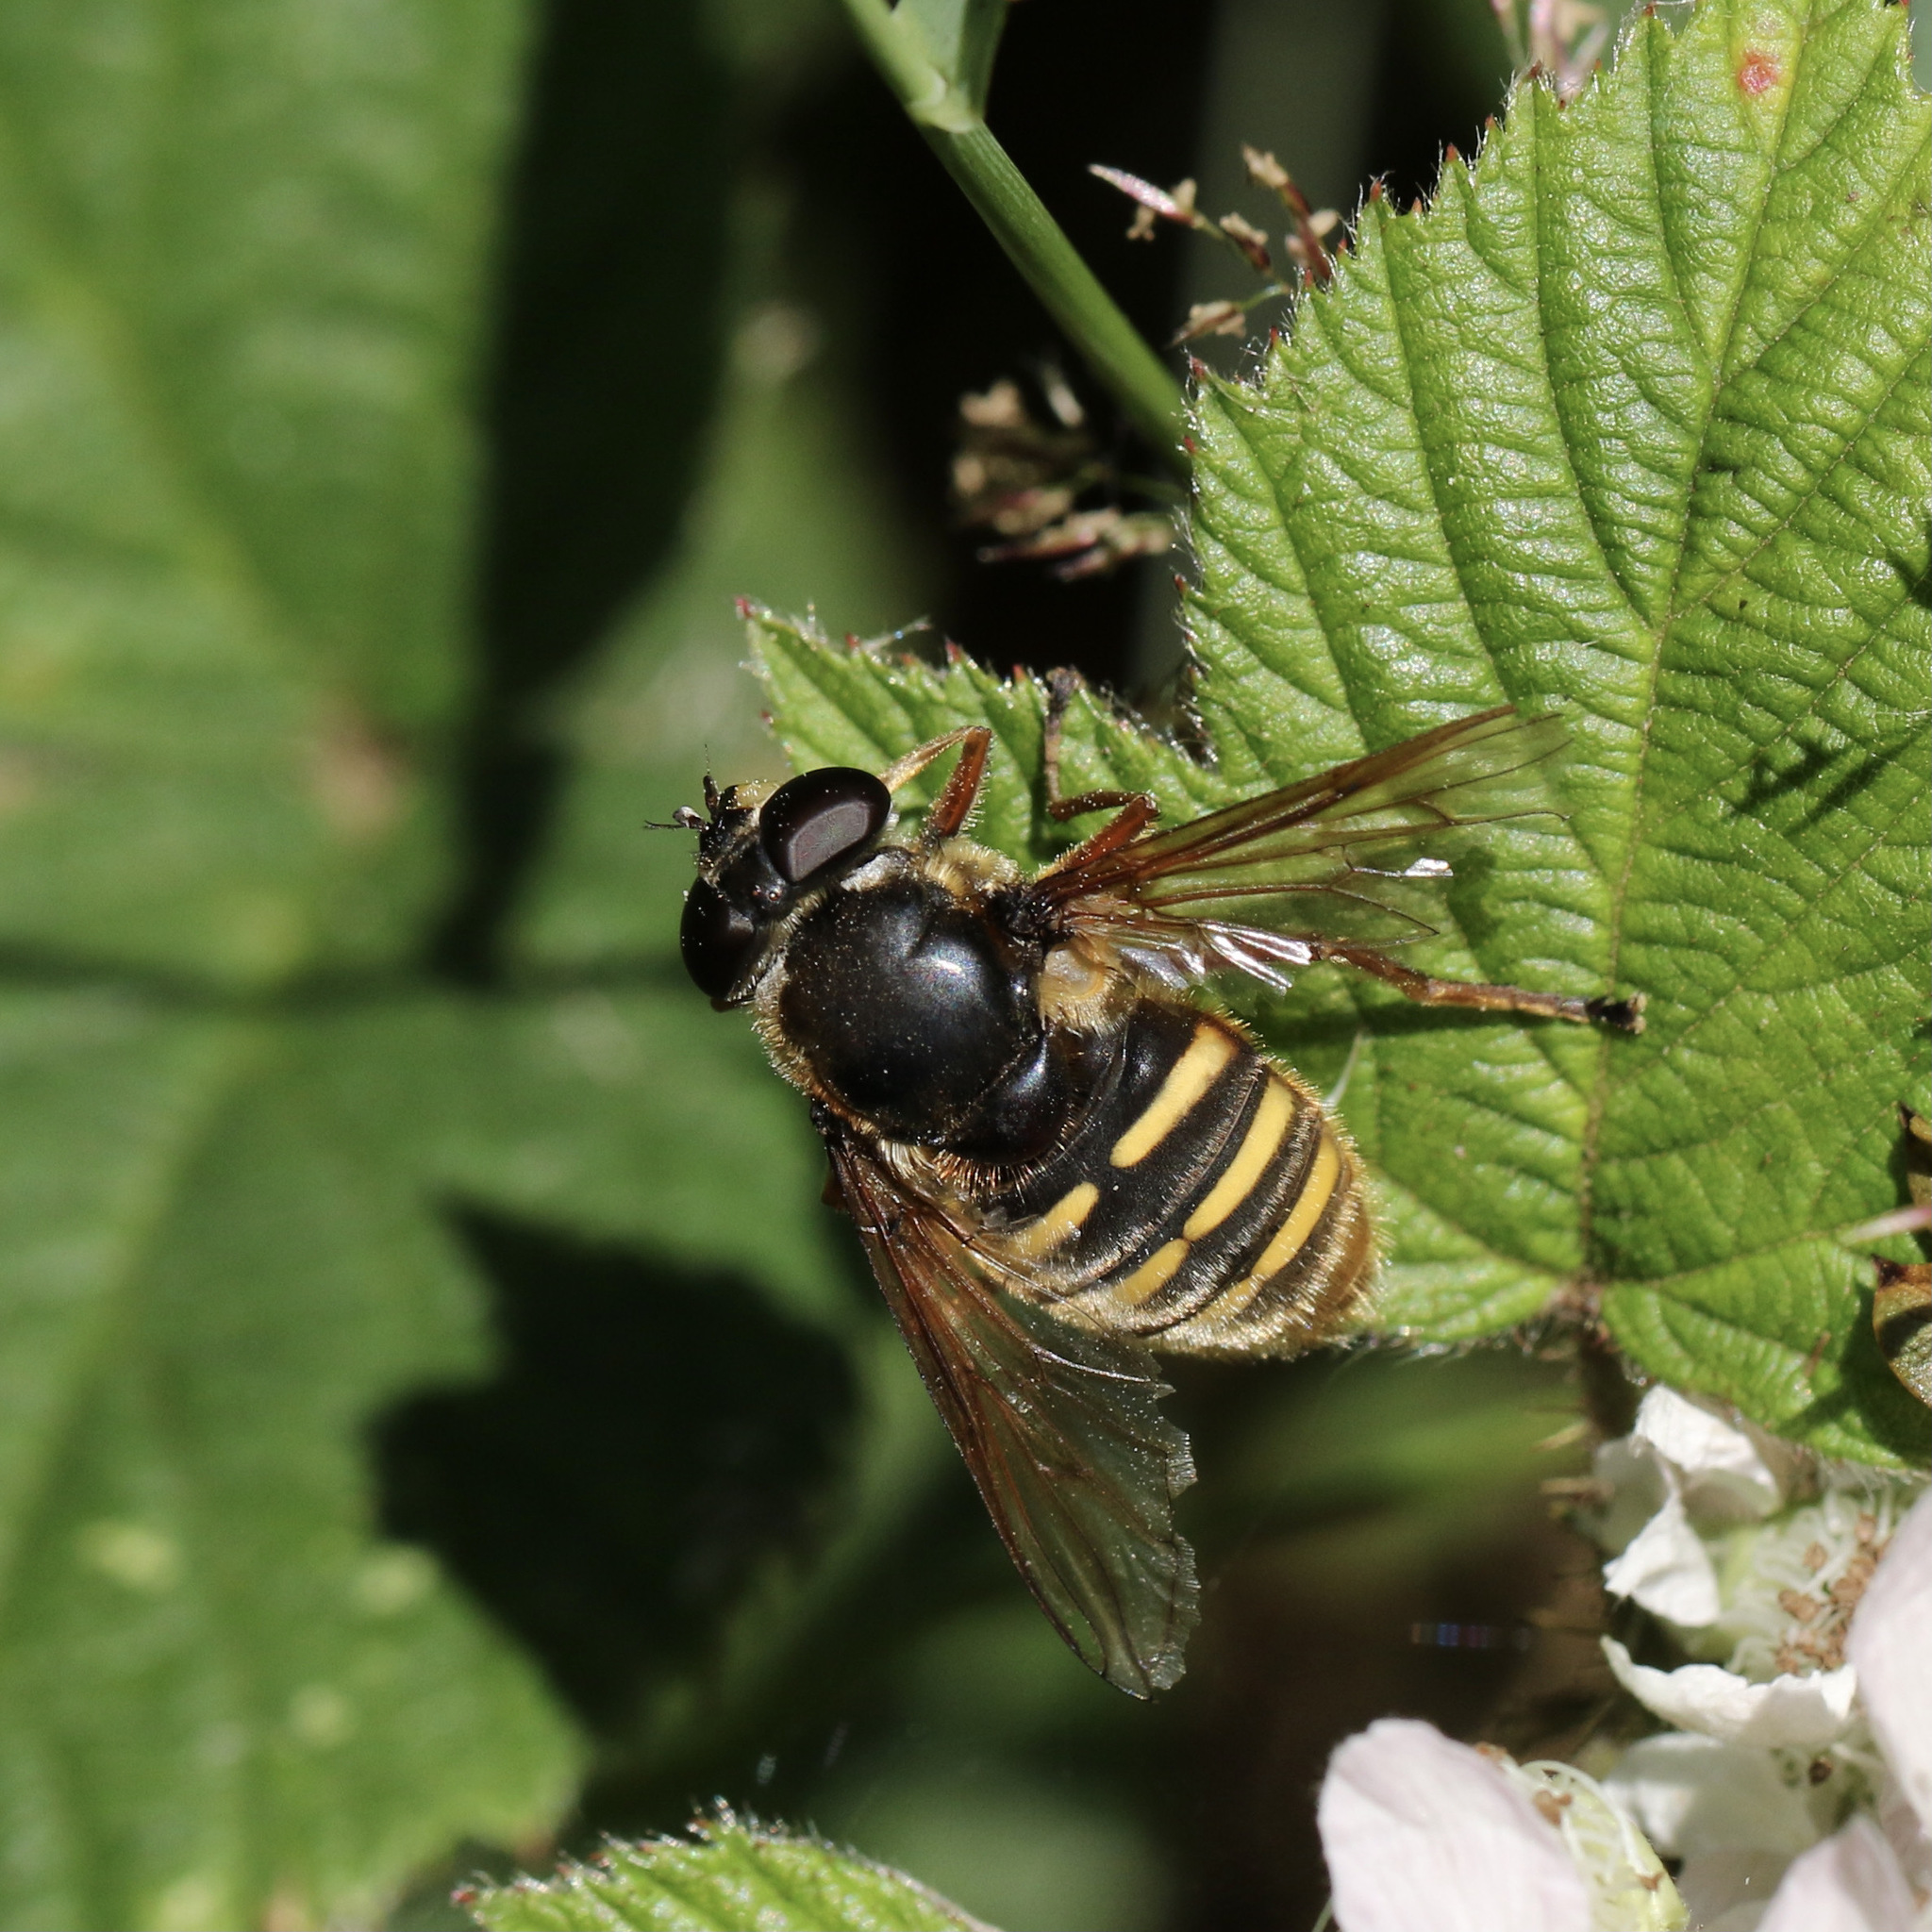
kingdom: Animalia
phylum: Arthropoda
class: Insecta
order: Diptera
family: Syrphidae
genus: Sericomyia
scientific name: Sericomyia silentis
